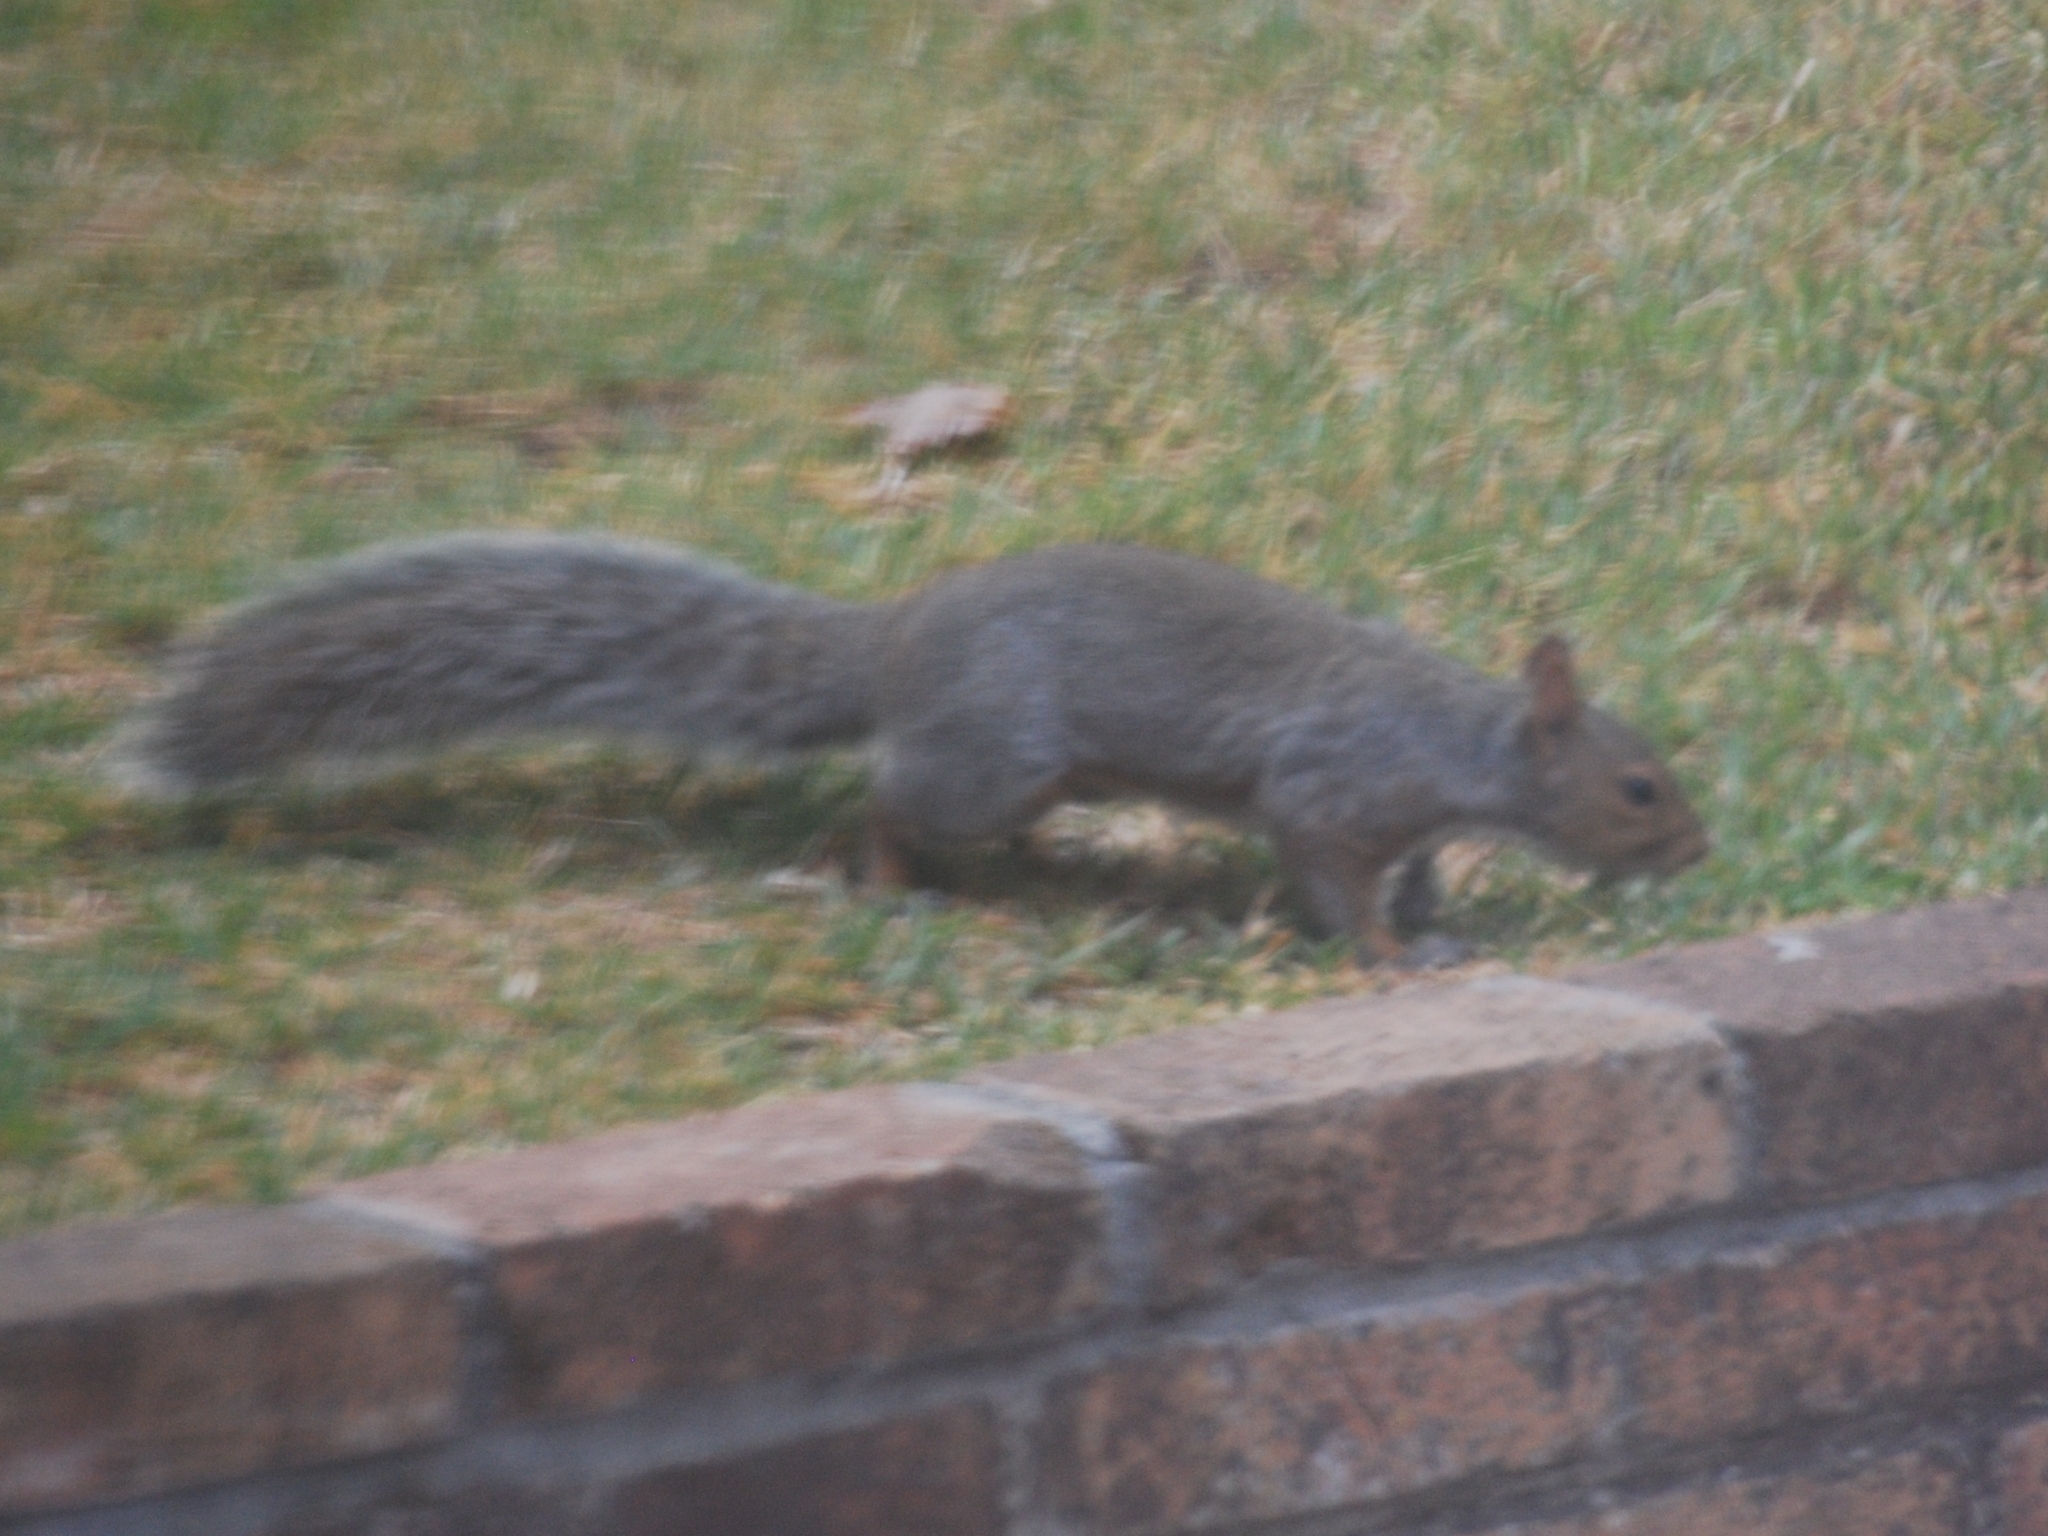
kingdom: Animalia
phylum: Chordata
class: Mammalia
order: Rodentia
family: Sciuridae
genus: Sciurus
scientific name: Sciurus carolinensis
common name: Eastern gray squirrel
